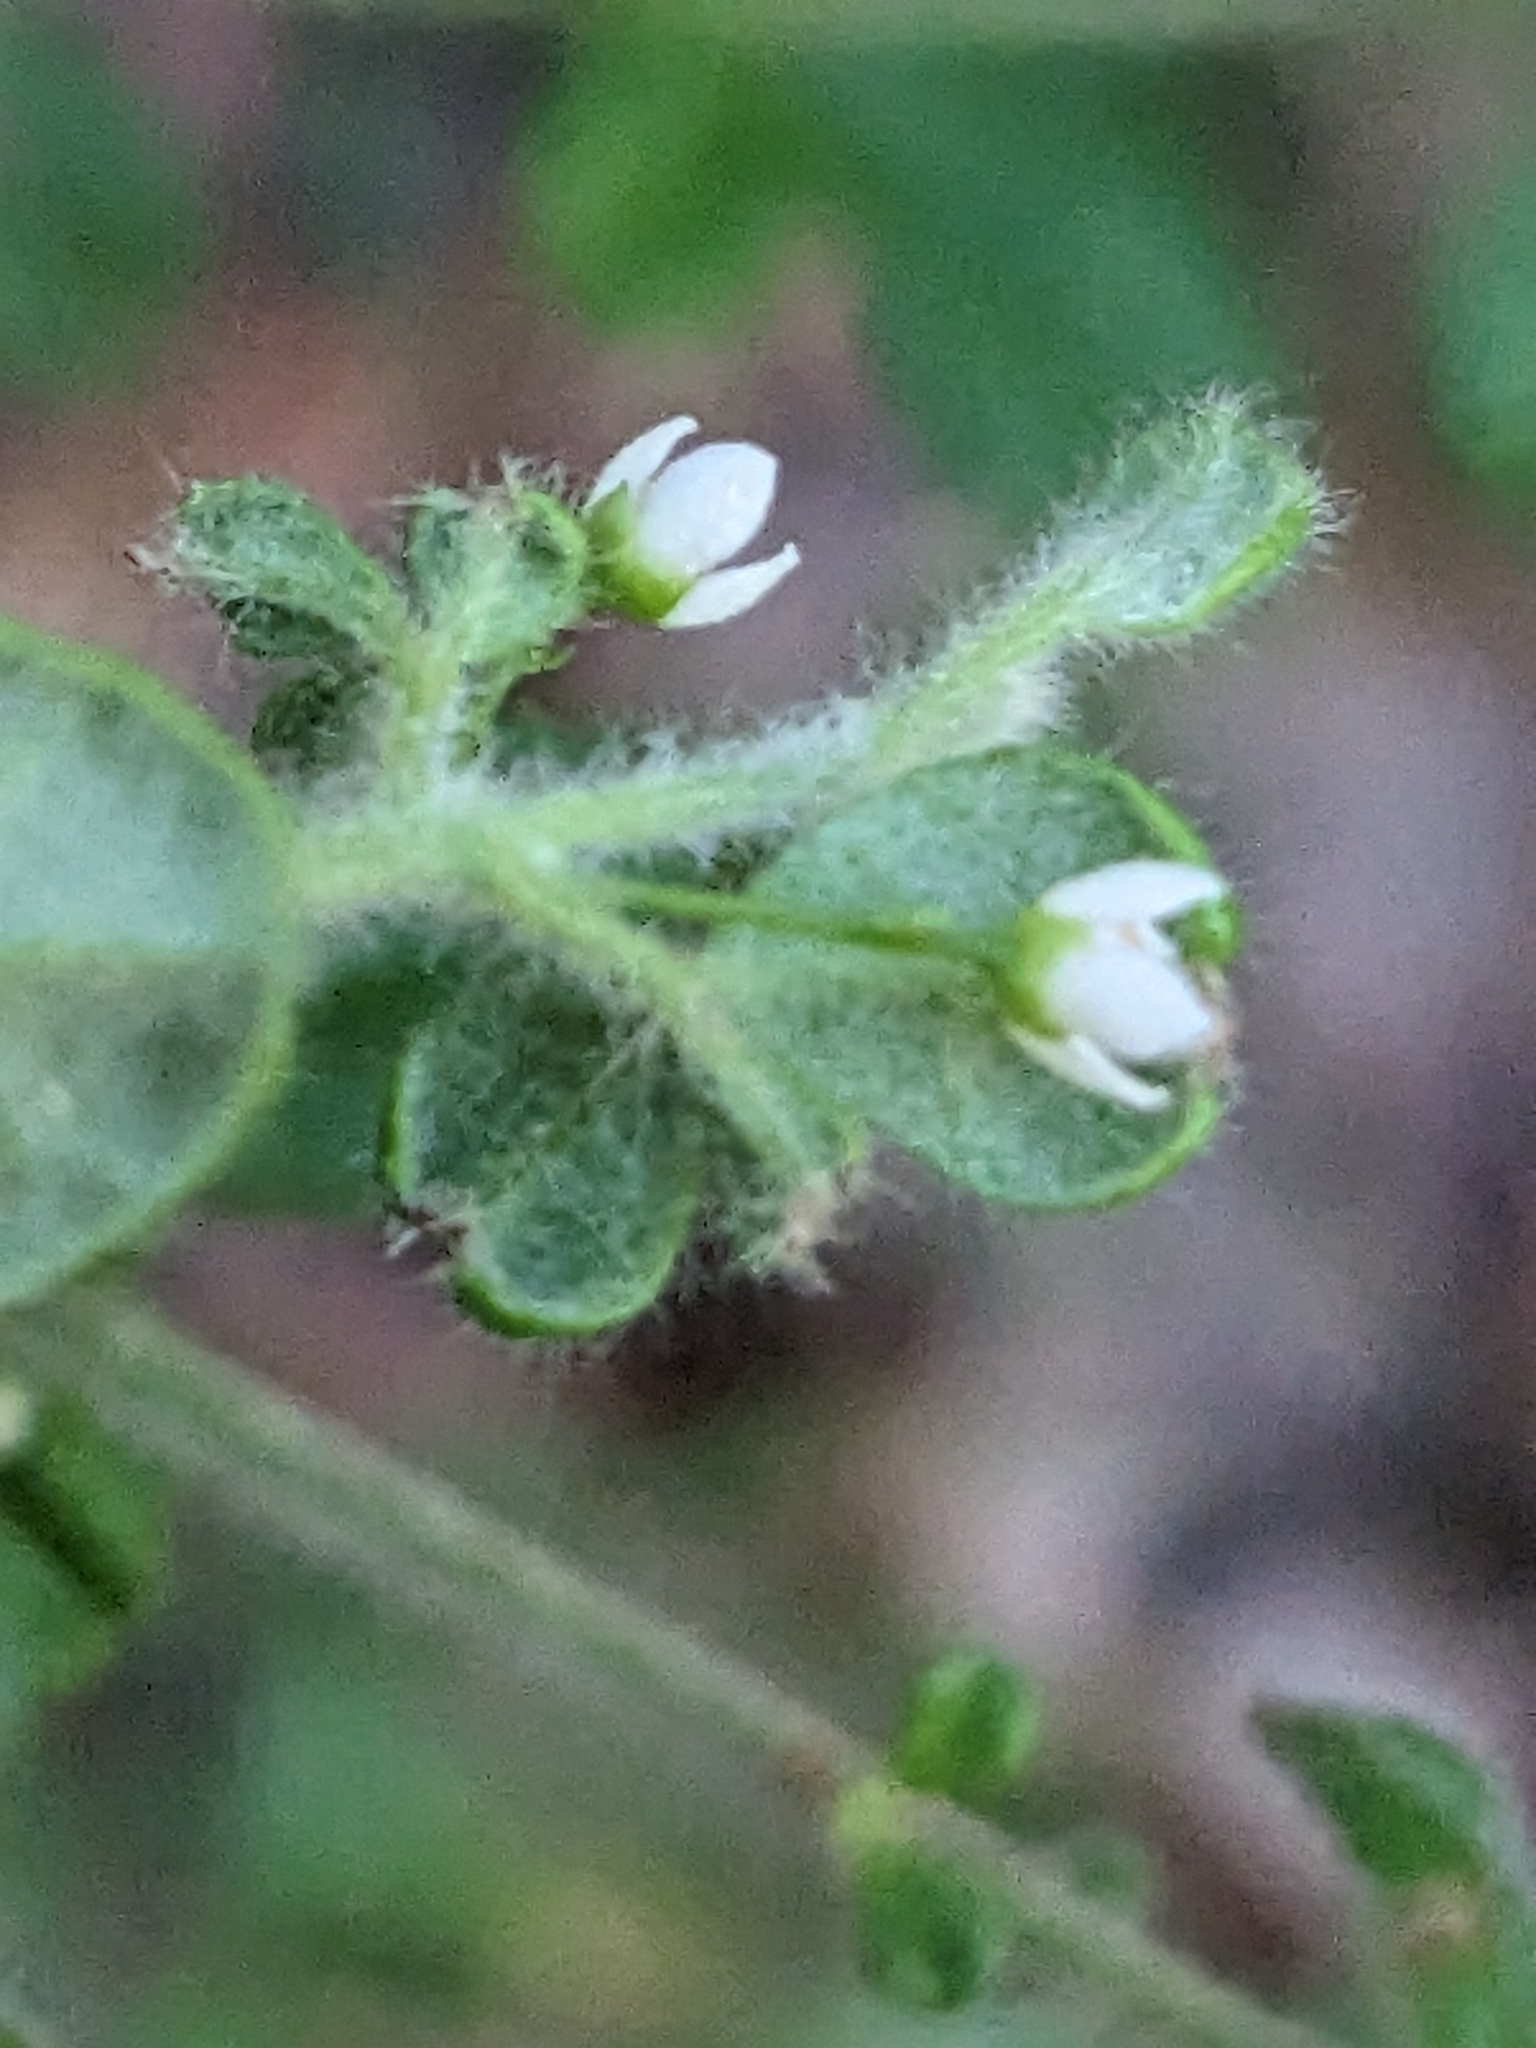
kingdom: Plantae
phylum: Tracheophyta
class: Magnoliopsida
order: Sapindales
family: Rutaceae
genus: Zieria
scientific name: Zieria minutiflora
